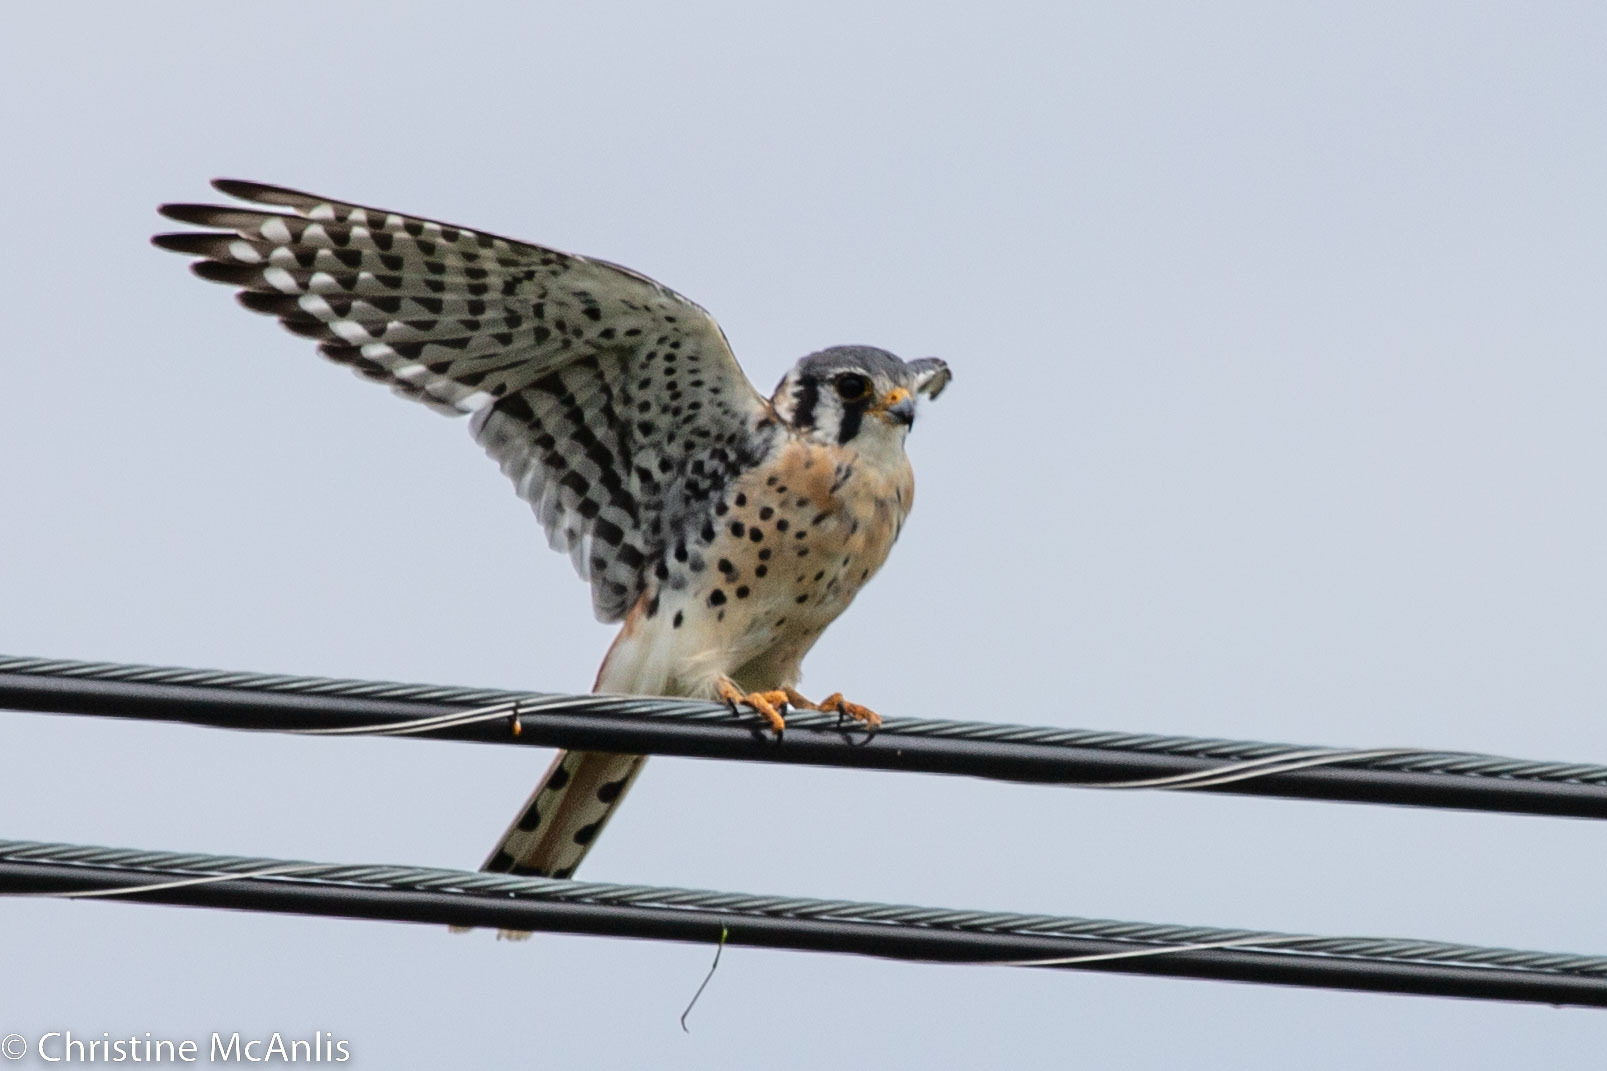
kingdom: Animalia
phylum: Chordata
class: Aves
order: Falconiformes
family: Falconidae
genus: Falco
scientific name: Falco sparverius
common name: American kestrel
